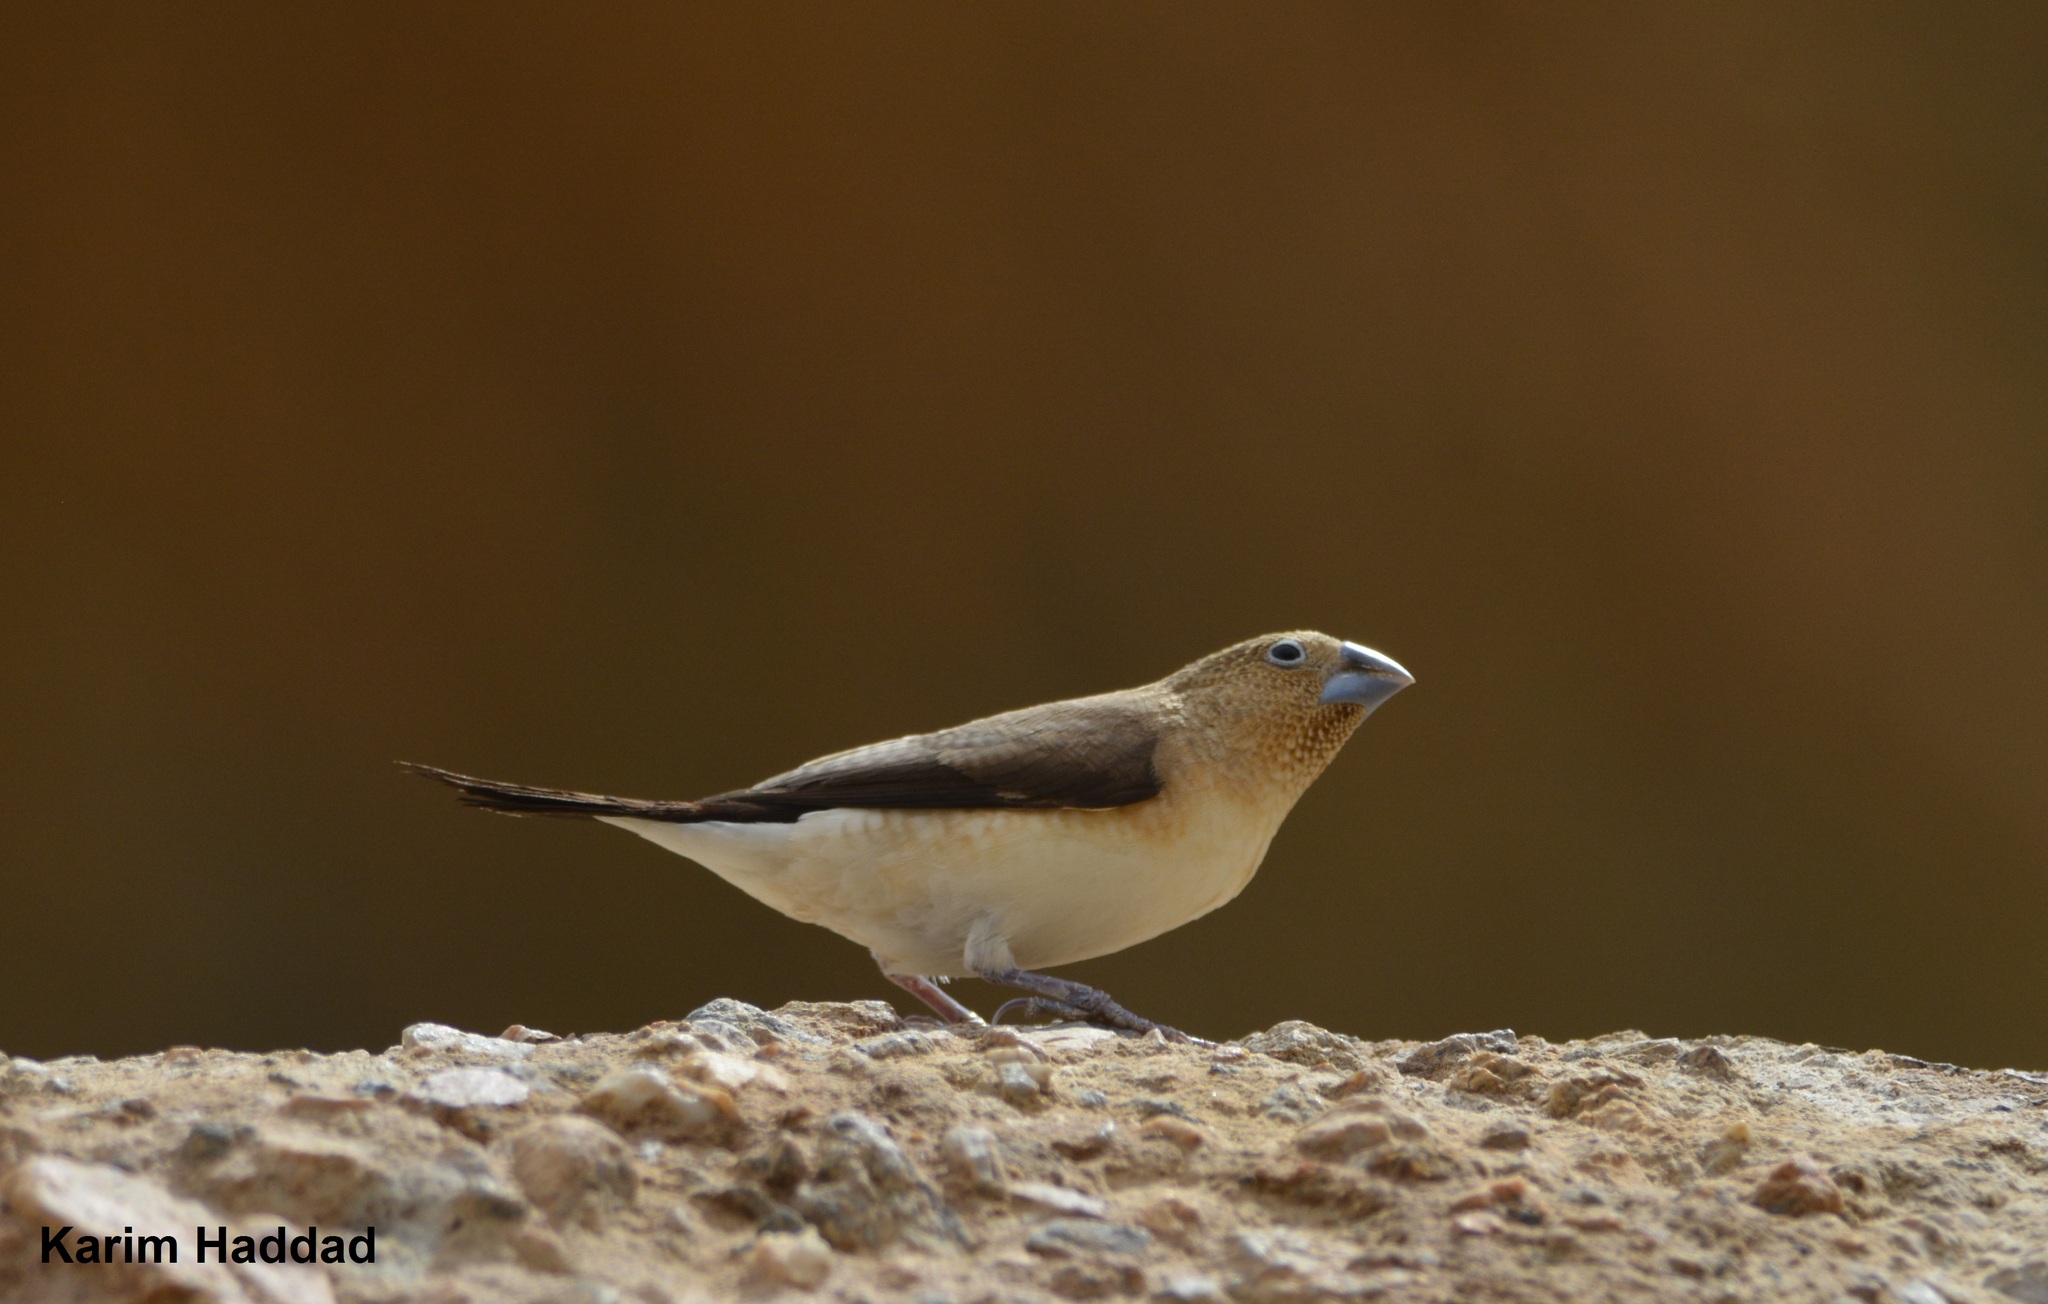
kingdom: Animalia
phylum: Chordata
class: Aves
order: Passeriformes
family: Estrildidae
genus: Euodice
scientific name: Euodice cantans
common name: African silverbill
